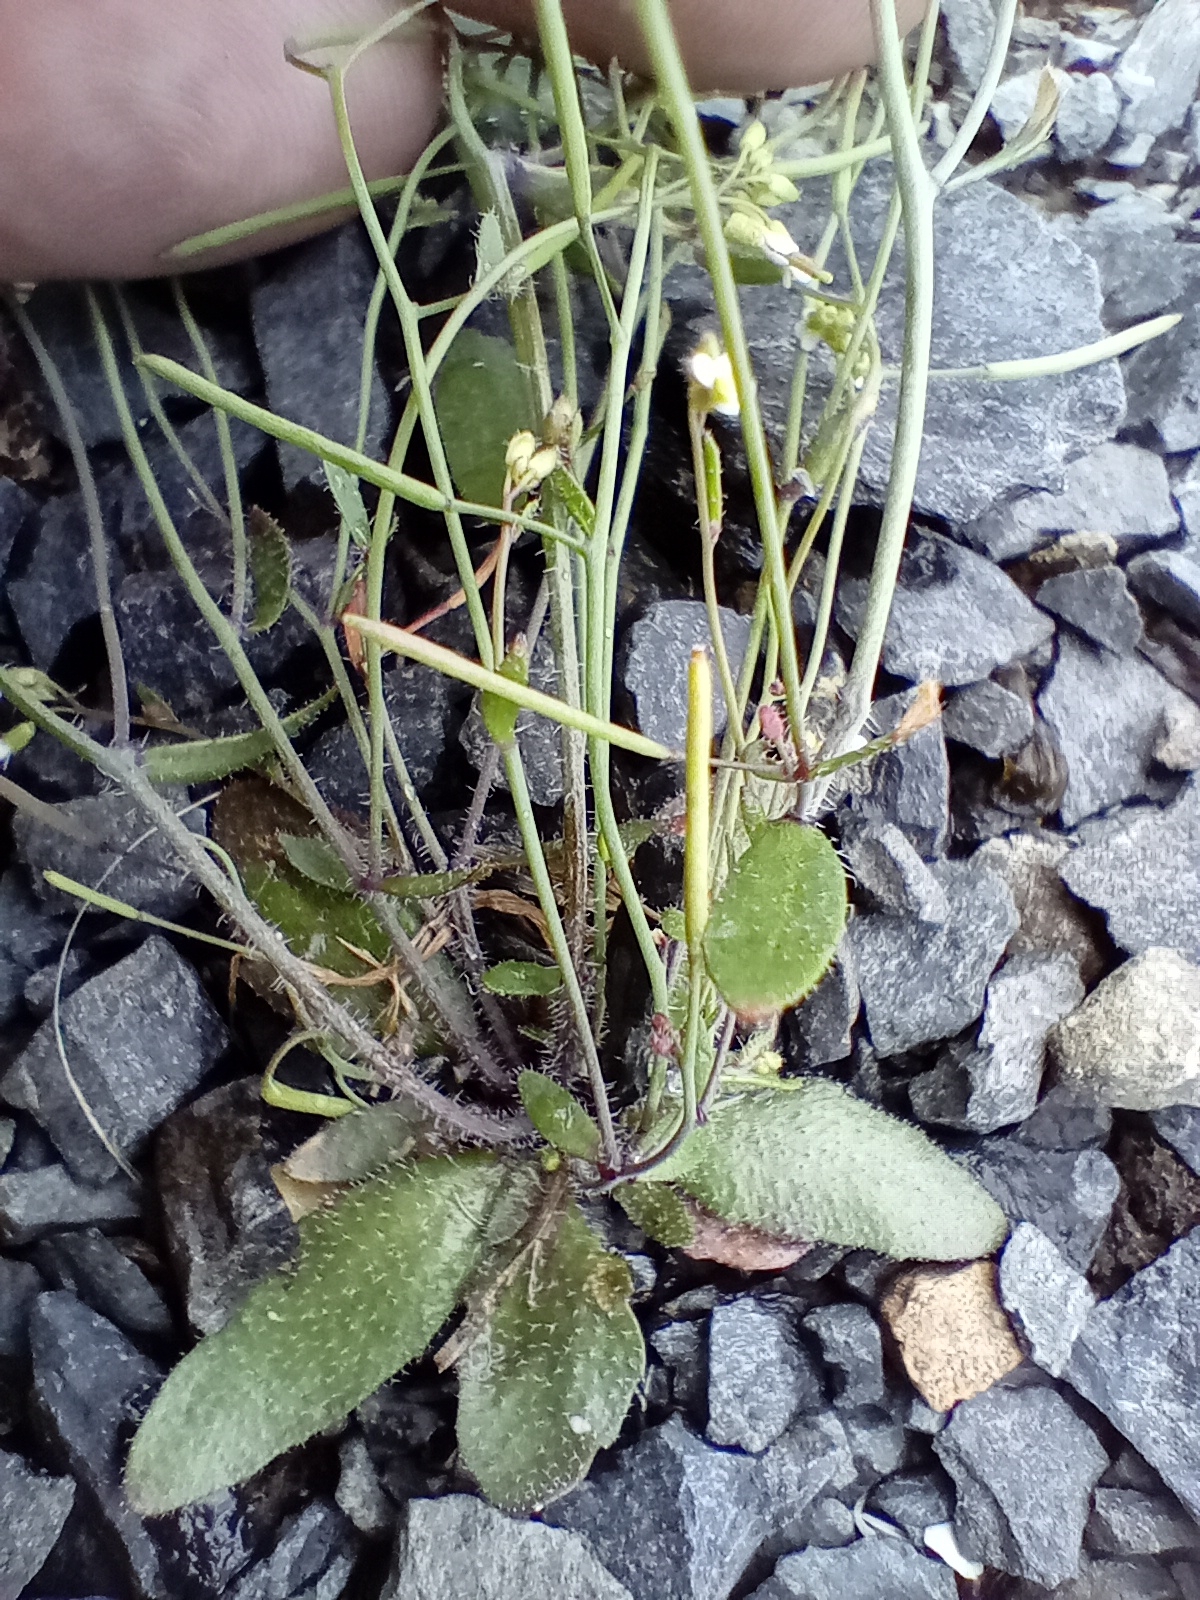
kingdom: Plantae
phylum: Tracheophyta
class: Magnoliopsida
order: Brassicales
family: Brassicaceae
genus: Arabidopsis
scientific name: Arabidopsis thaliana
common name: Thale cress
